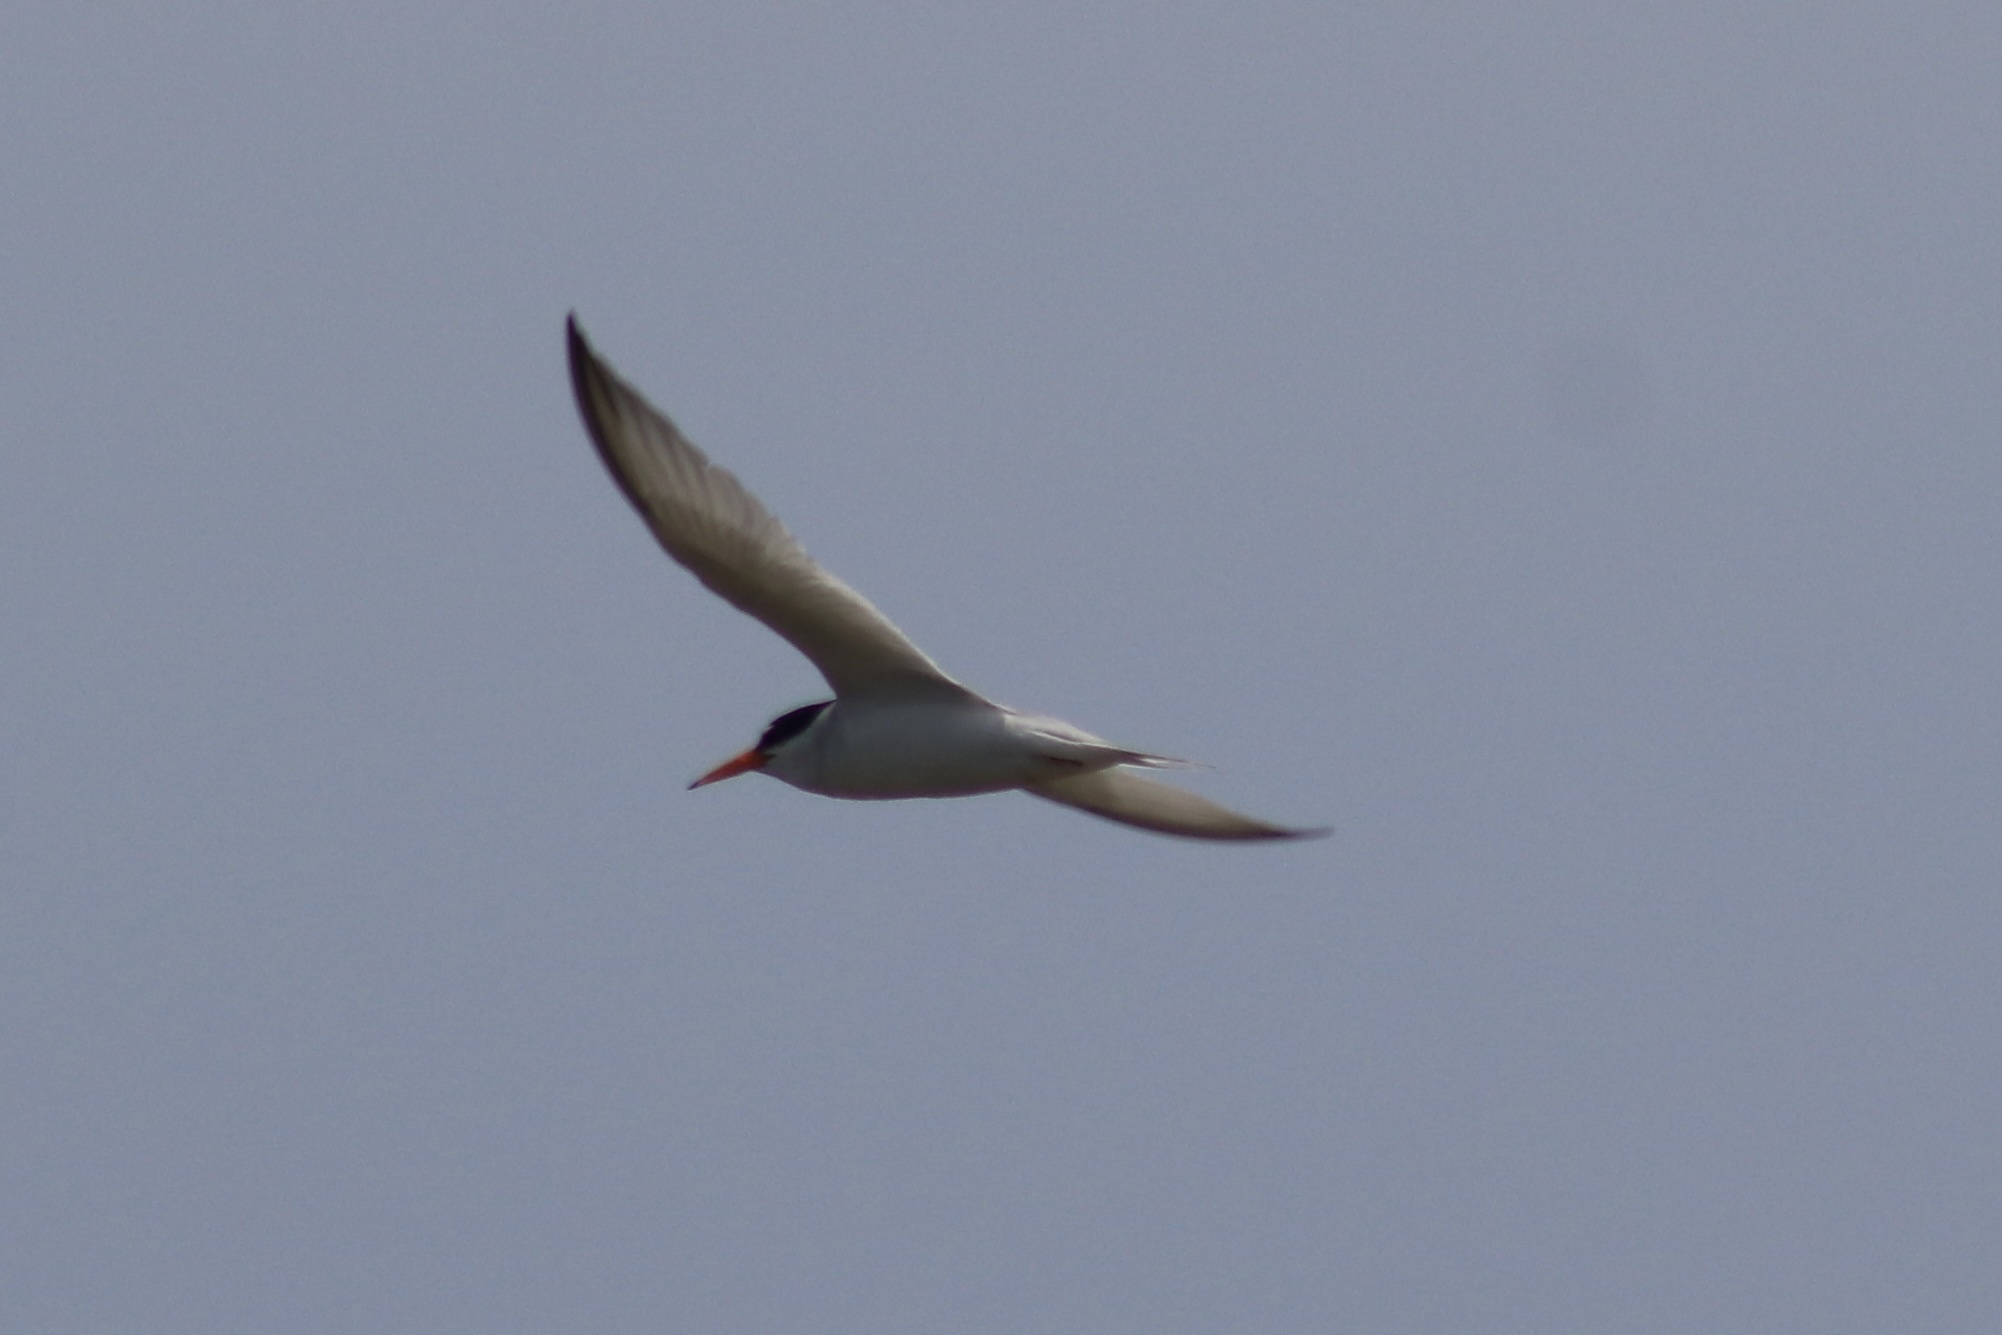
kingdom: Animalia
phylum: Chordata
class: Aves
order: Charadriiformes
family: Laridae
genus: Sternula
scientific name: Sternula antillarum
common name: Least tern
